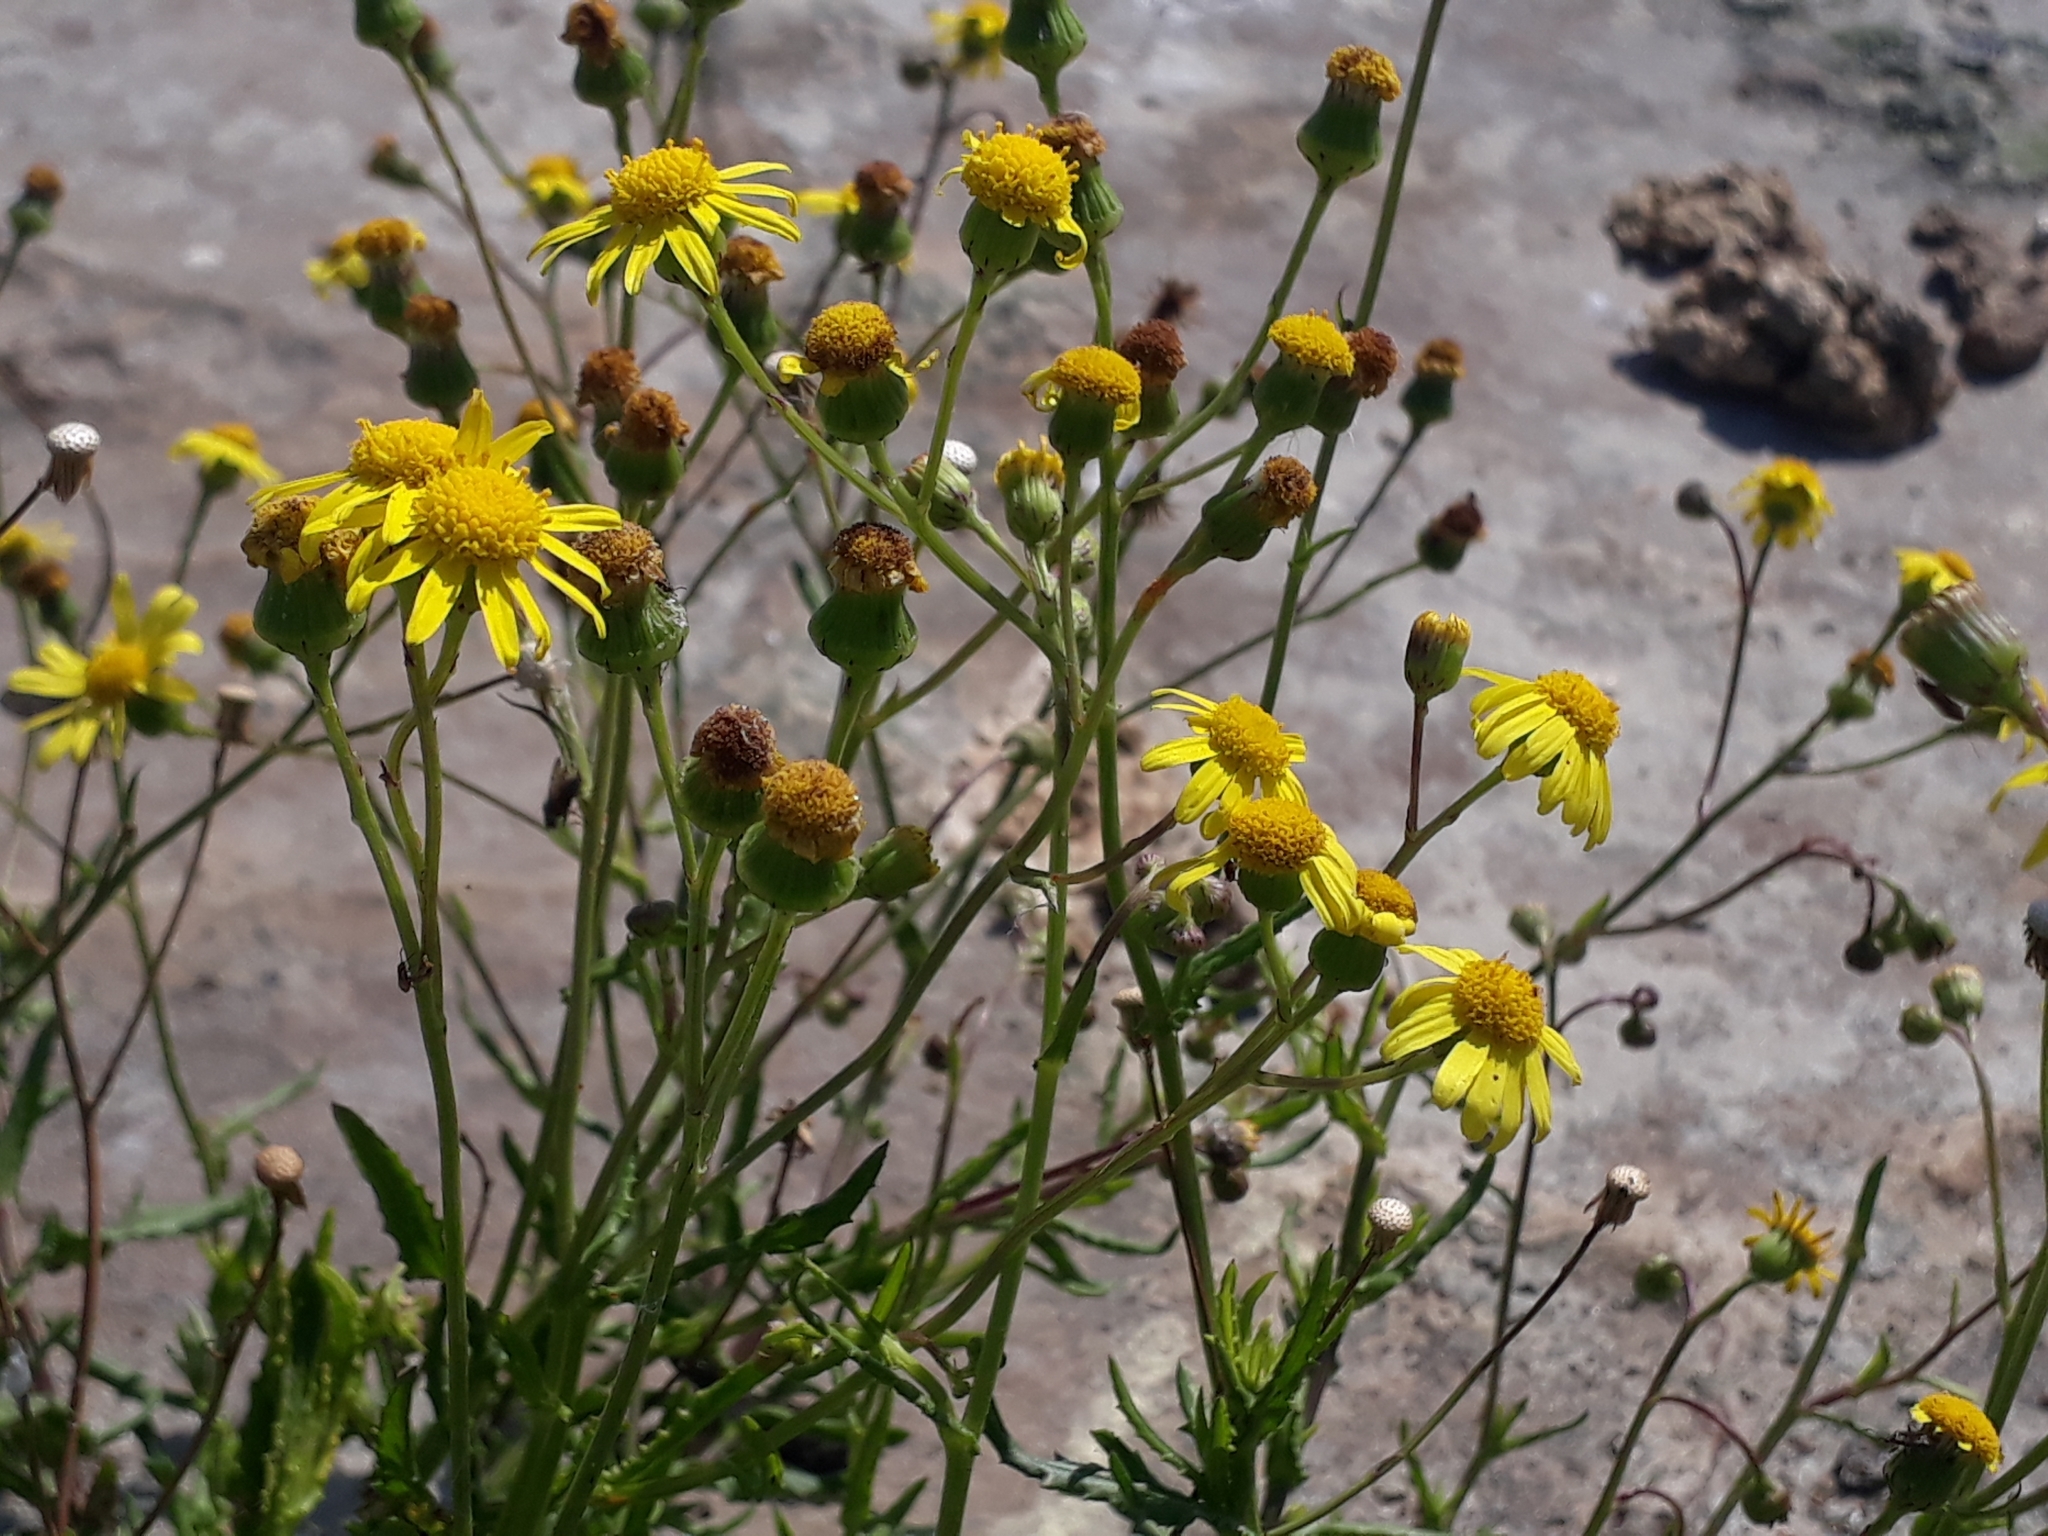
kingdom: Plantae
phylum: Tracheophyta
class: Magnoliopsida
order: Asterales
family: Asteraceae
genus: Senecio
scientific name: Senecio skirrhodon
